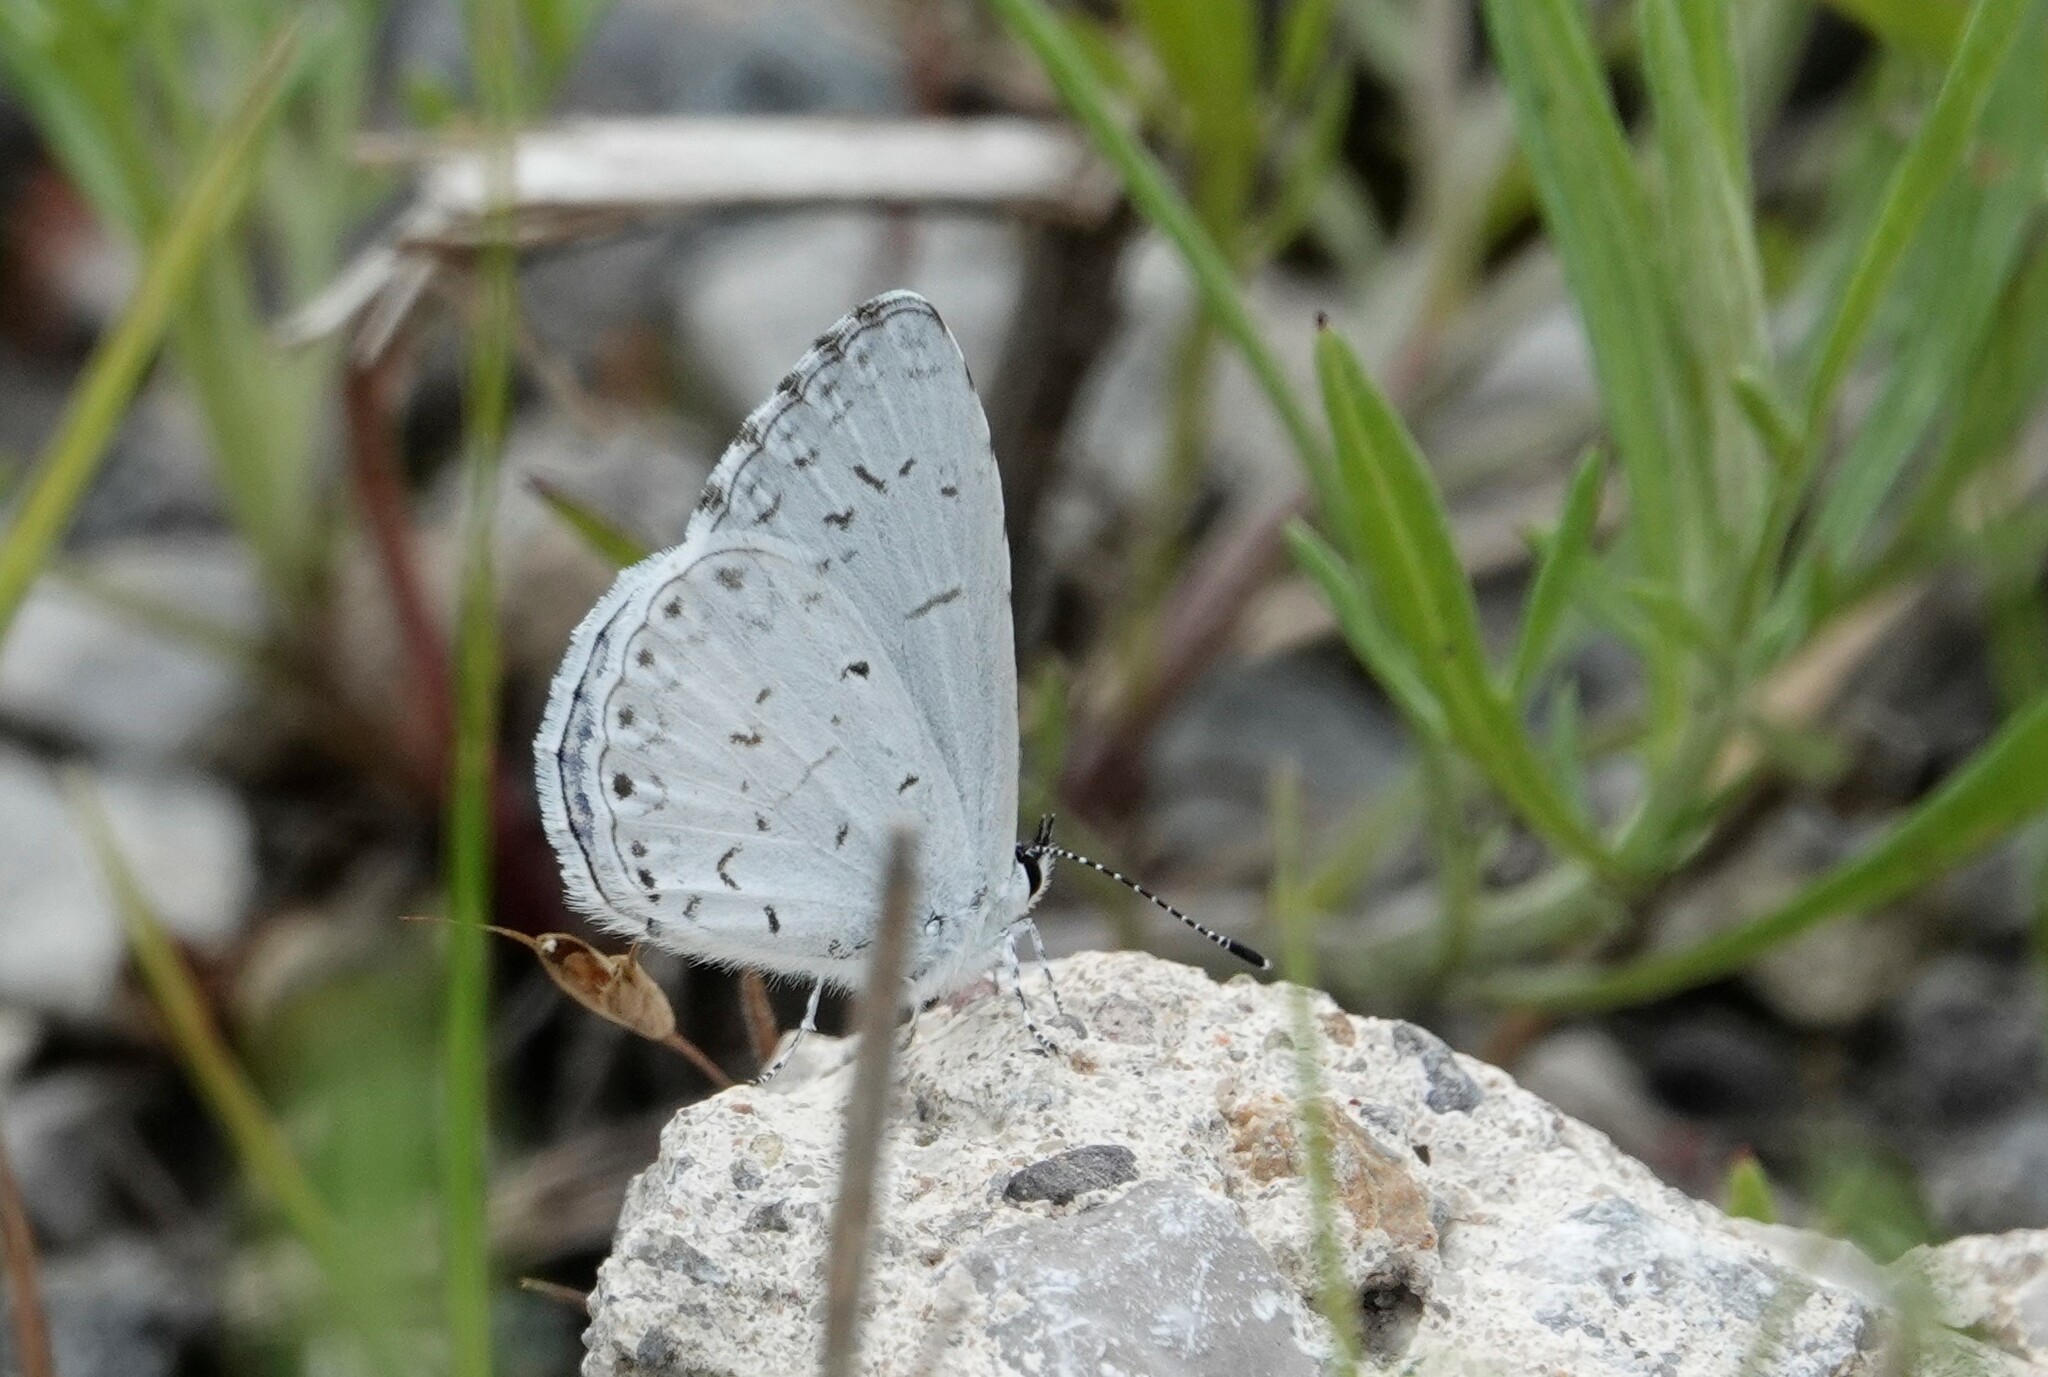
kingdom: Animalia
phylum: Arthropoda
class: Insecta
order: Lepidoptera
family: Lycaenidae
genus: Cyaniris
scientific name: Cyaniris neglecta
